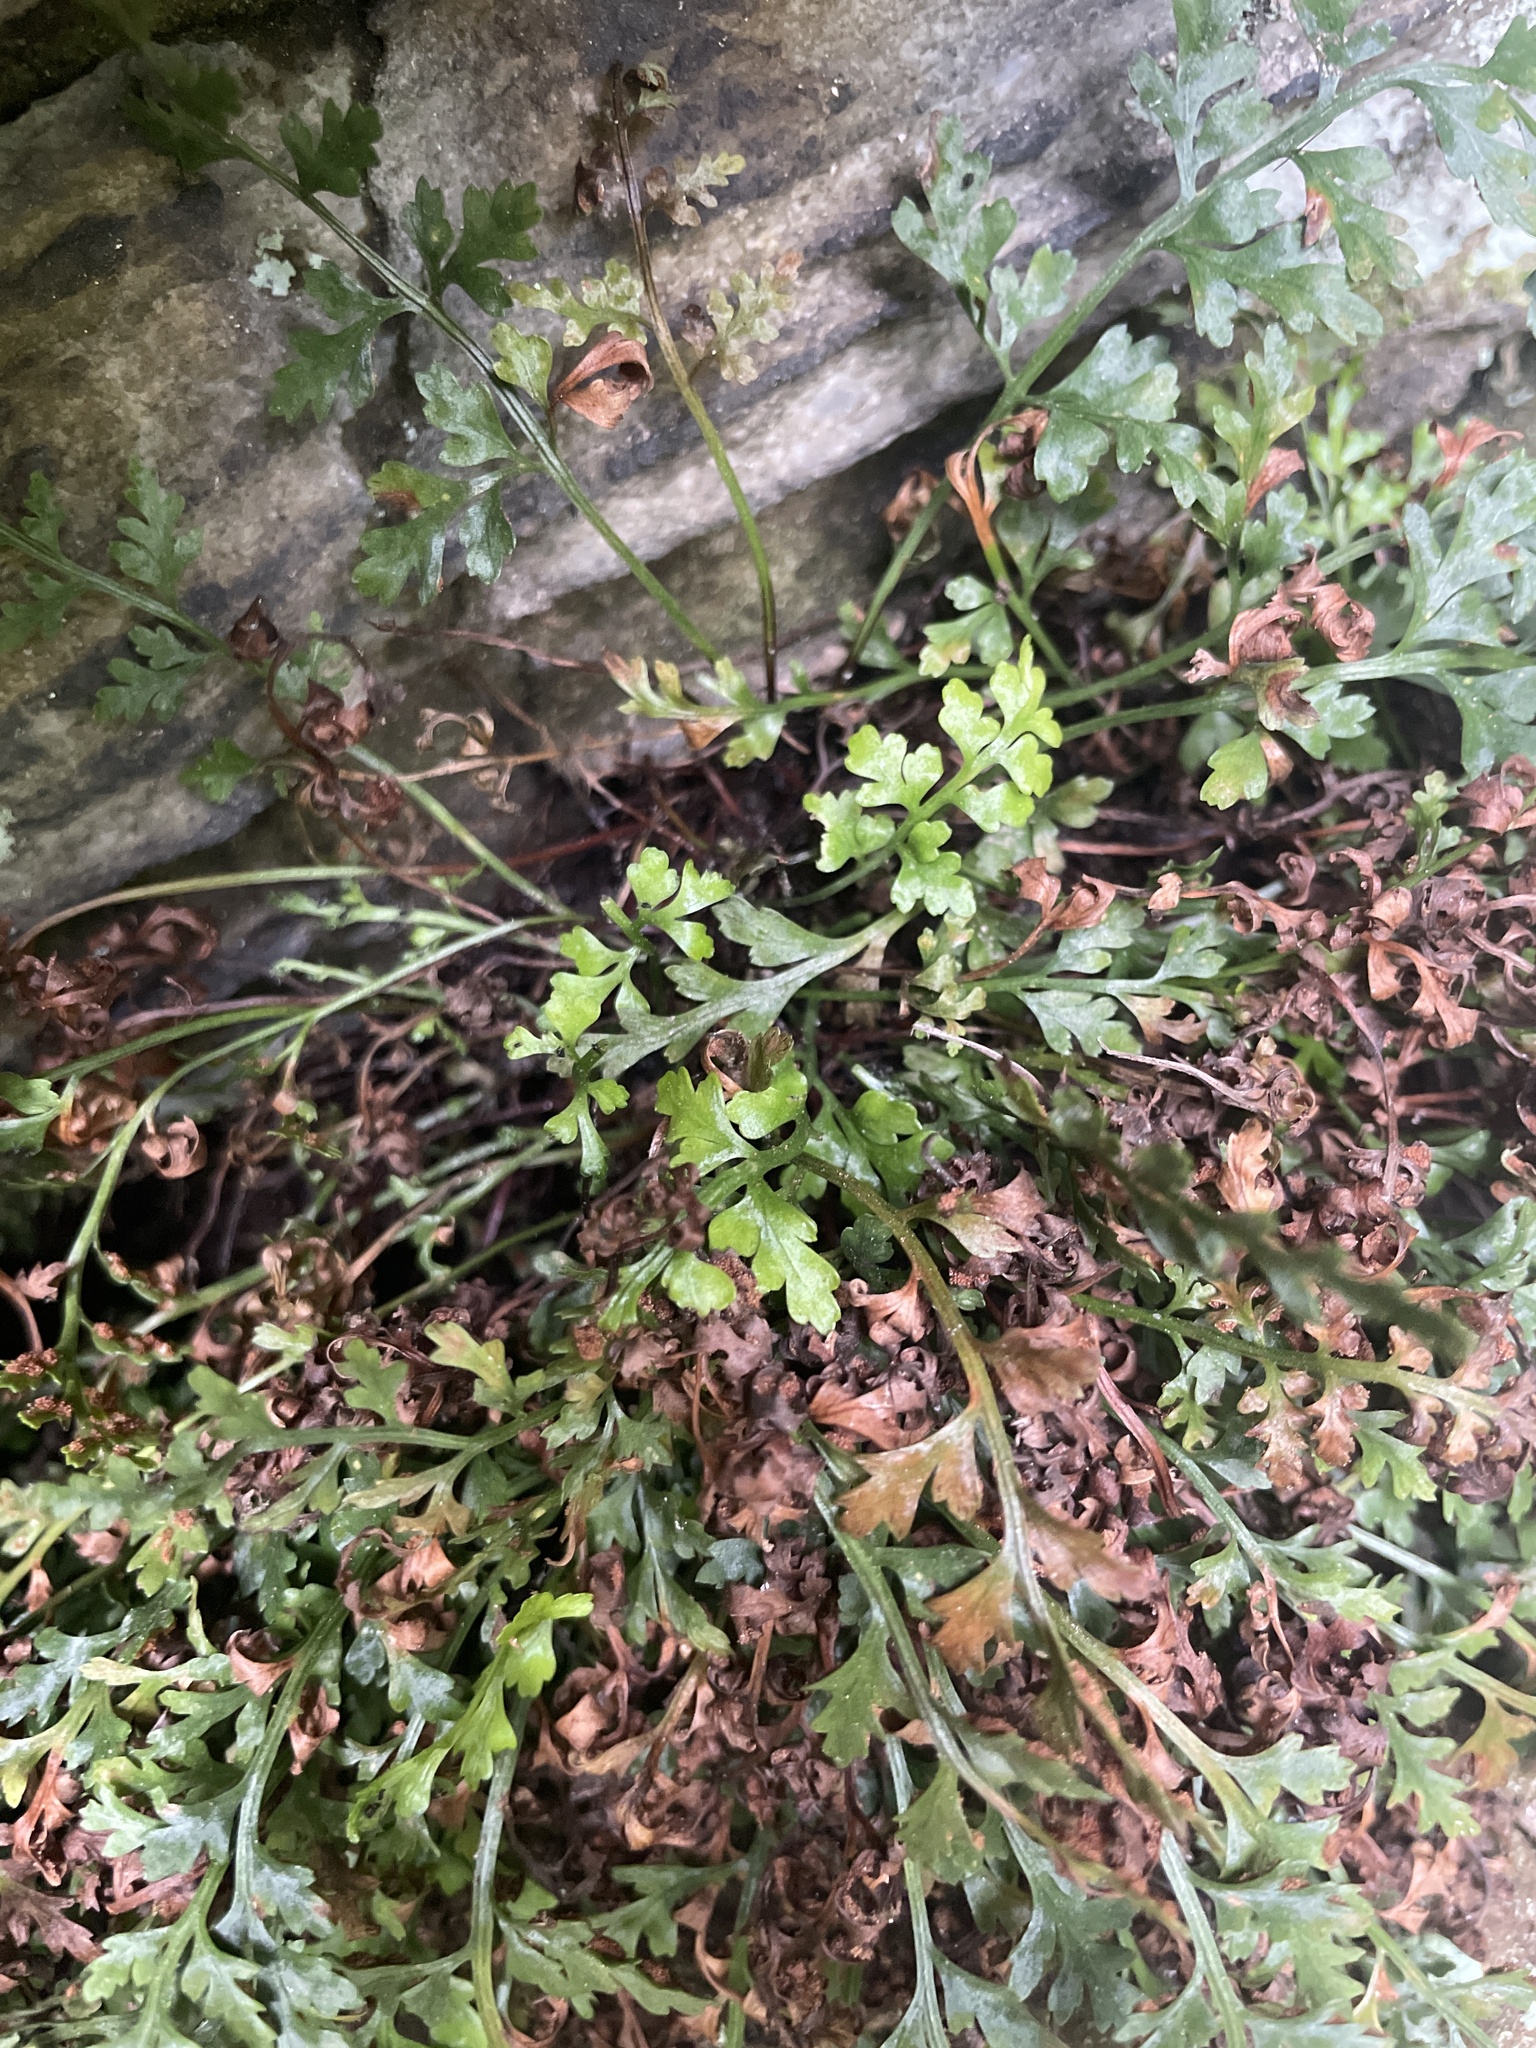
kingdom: Plantae
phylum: Tracheophyta
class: Polypodiopsida
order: Polypodiales
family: Aspleniaceae
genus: Asplenium
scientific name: Asplenium montanum
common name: Mountain spleenwort
